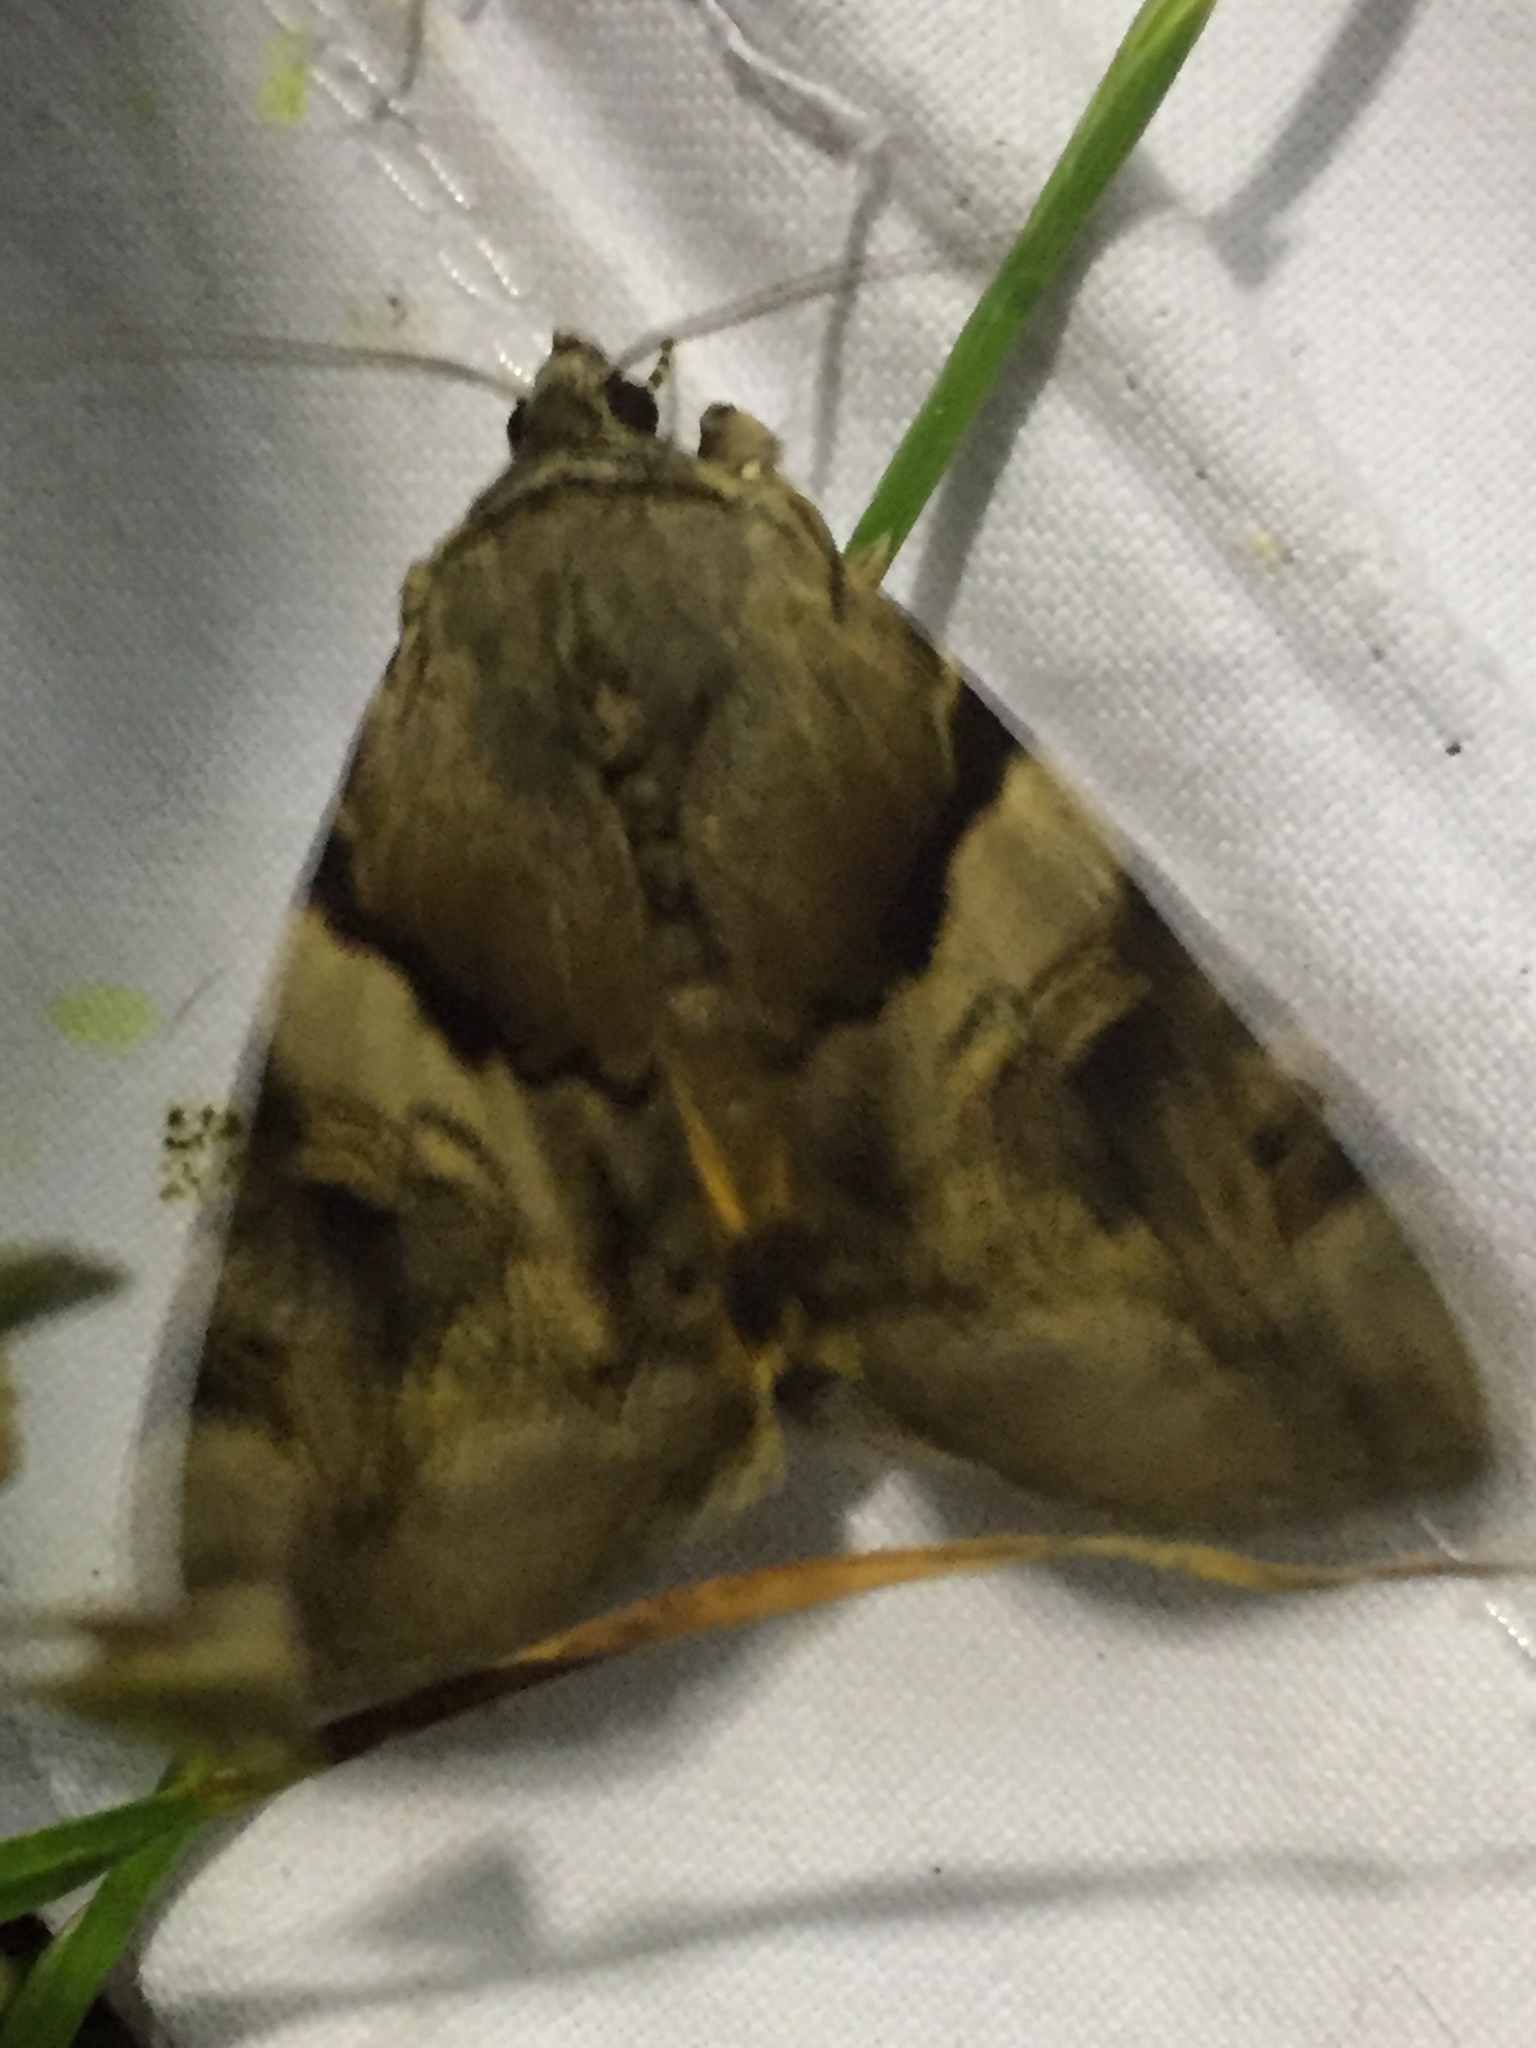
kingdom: Animalia
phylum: Arthropoda
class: Insecta
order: Lepidoptera
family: Erebidae
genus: Catocala
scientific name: Catocala fulminea
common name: Yellow bands underwing
